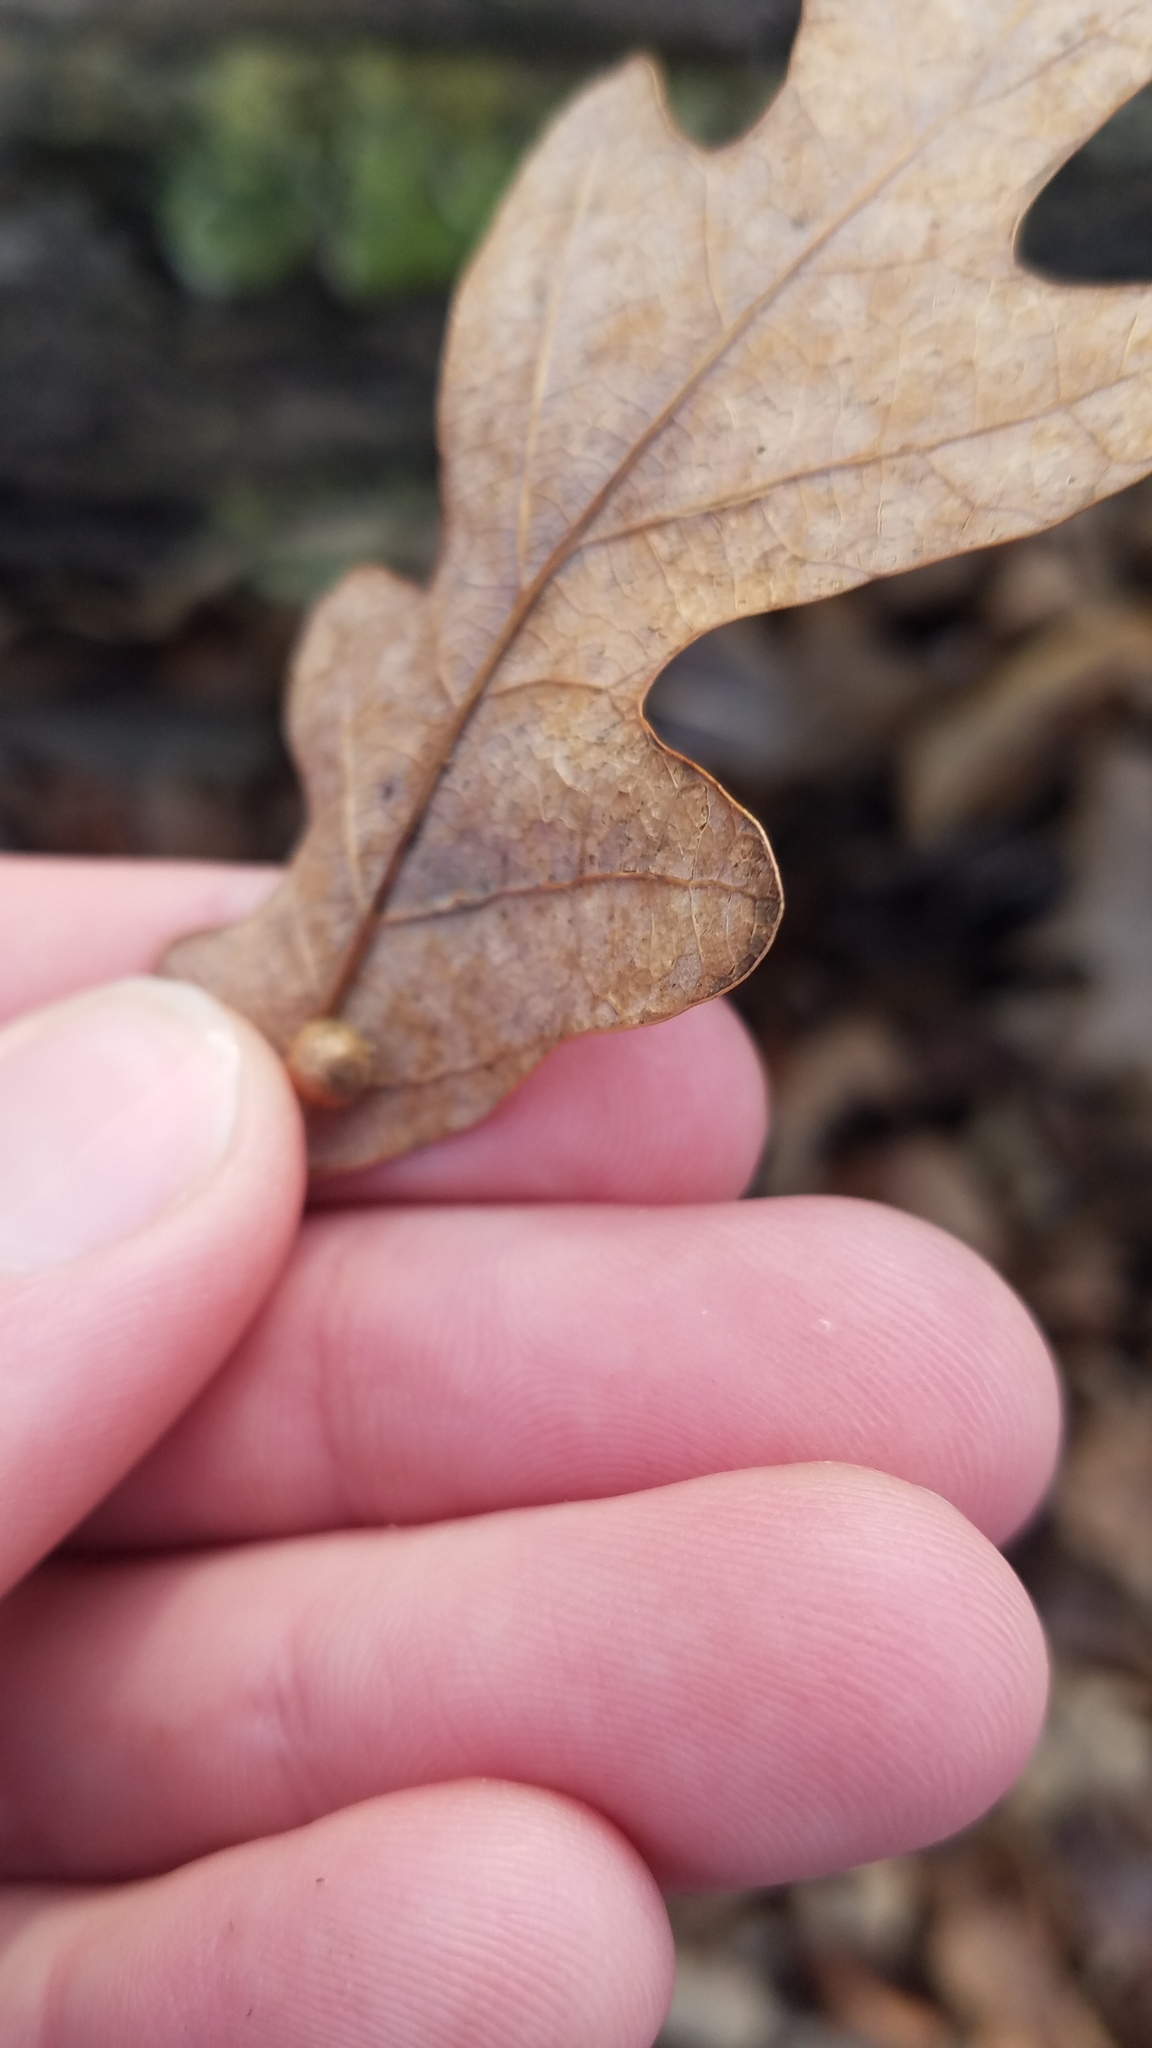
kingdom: Animalia
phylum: Arthropoda
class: Insecta
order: Hymenoptera
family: Cynipidae
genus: Philonix
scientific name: Philonix fulvicollis
